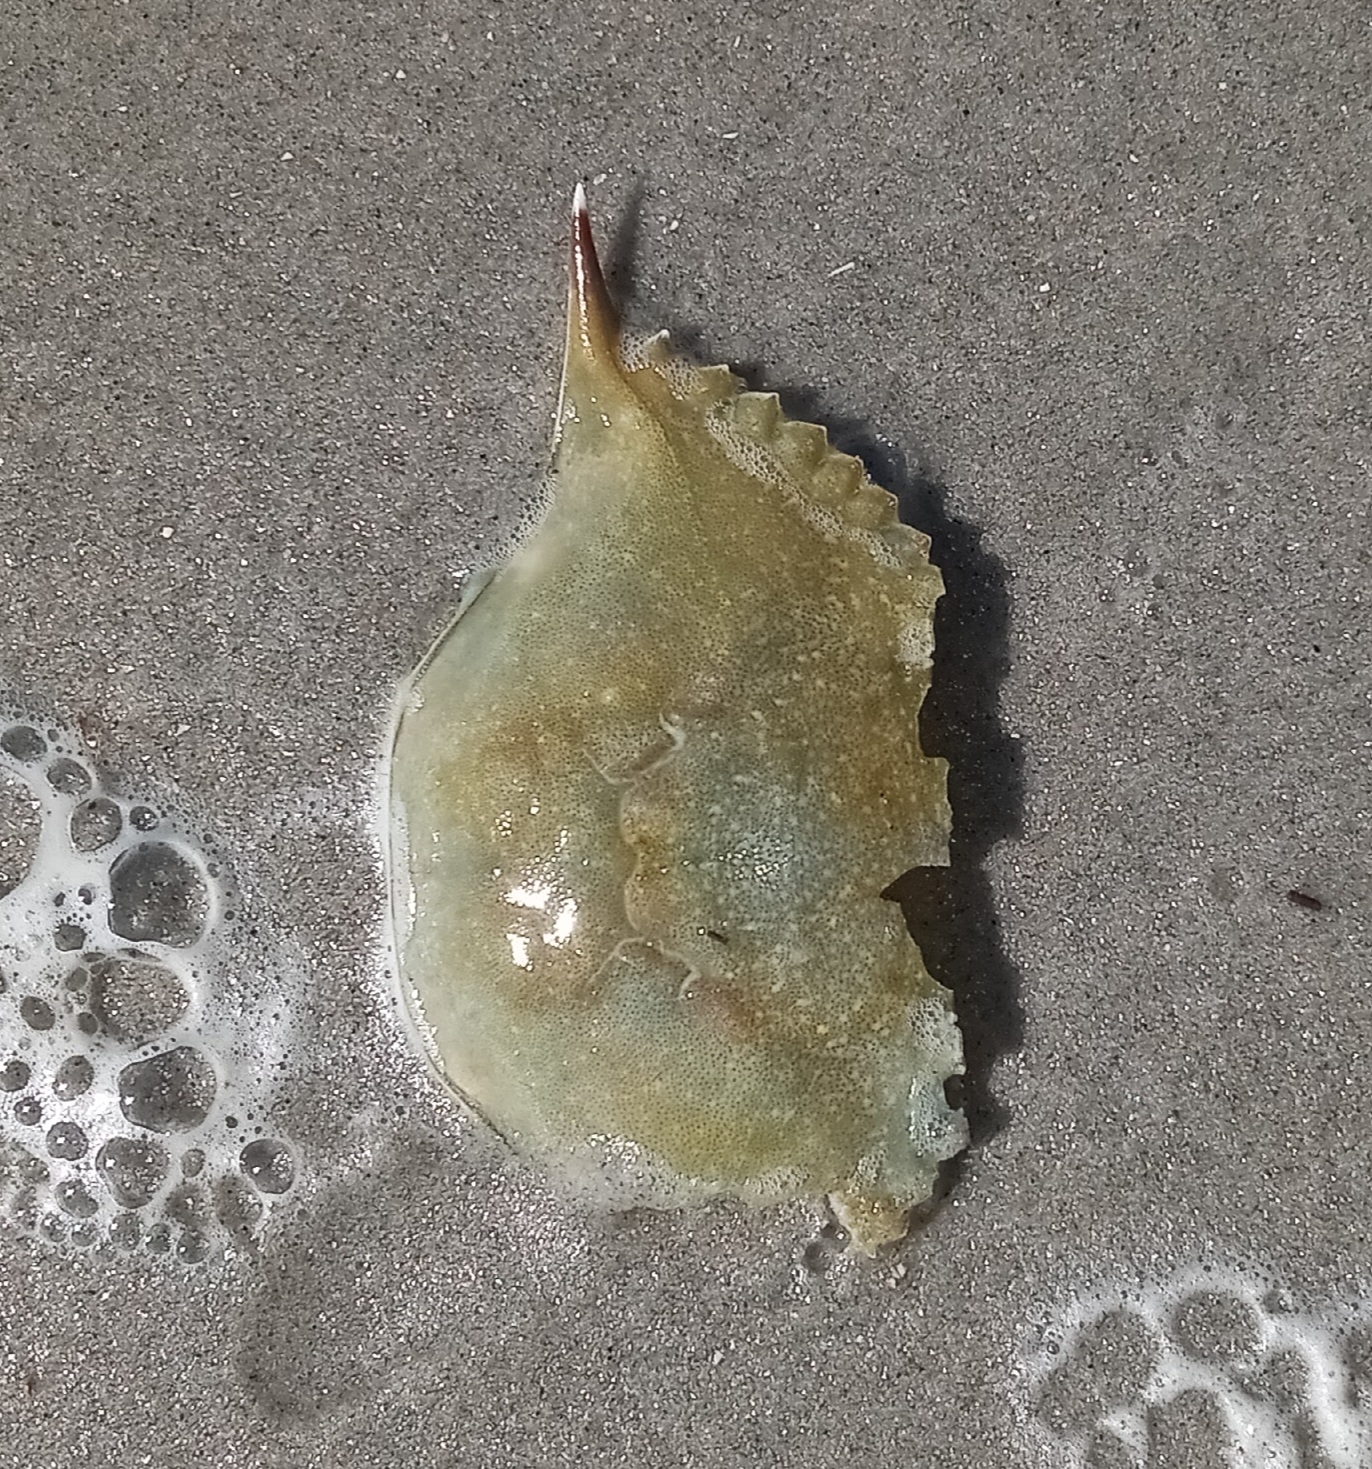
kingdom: Animalia
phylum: Arthropoda
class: Malacostraca
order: Decapoda
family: Portunidae
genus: Callinectes
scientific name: Callinectes sapidus
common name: Blue crab
